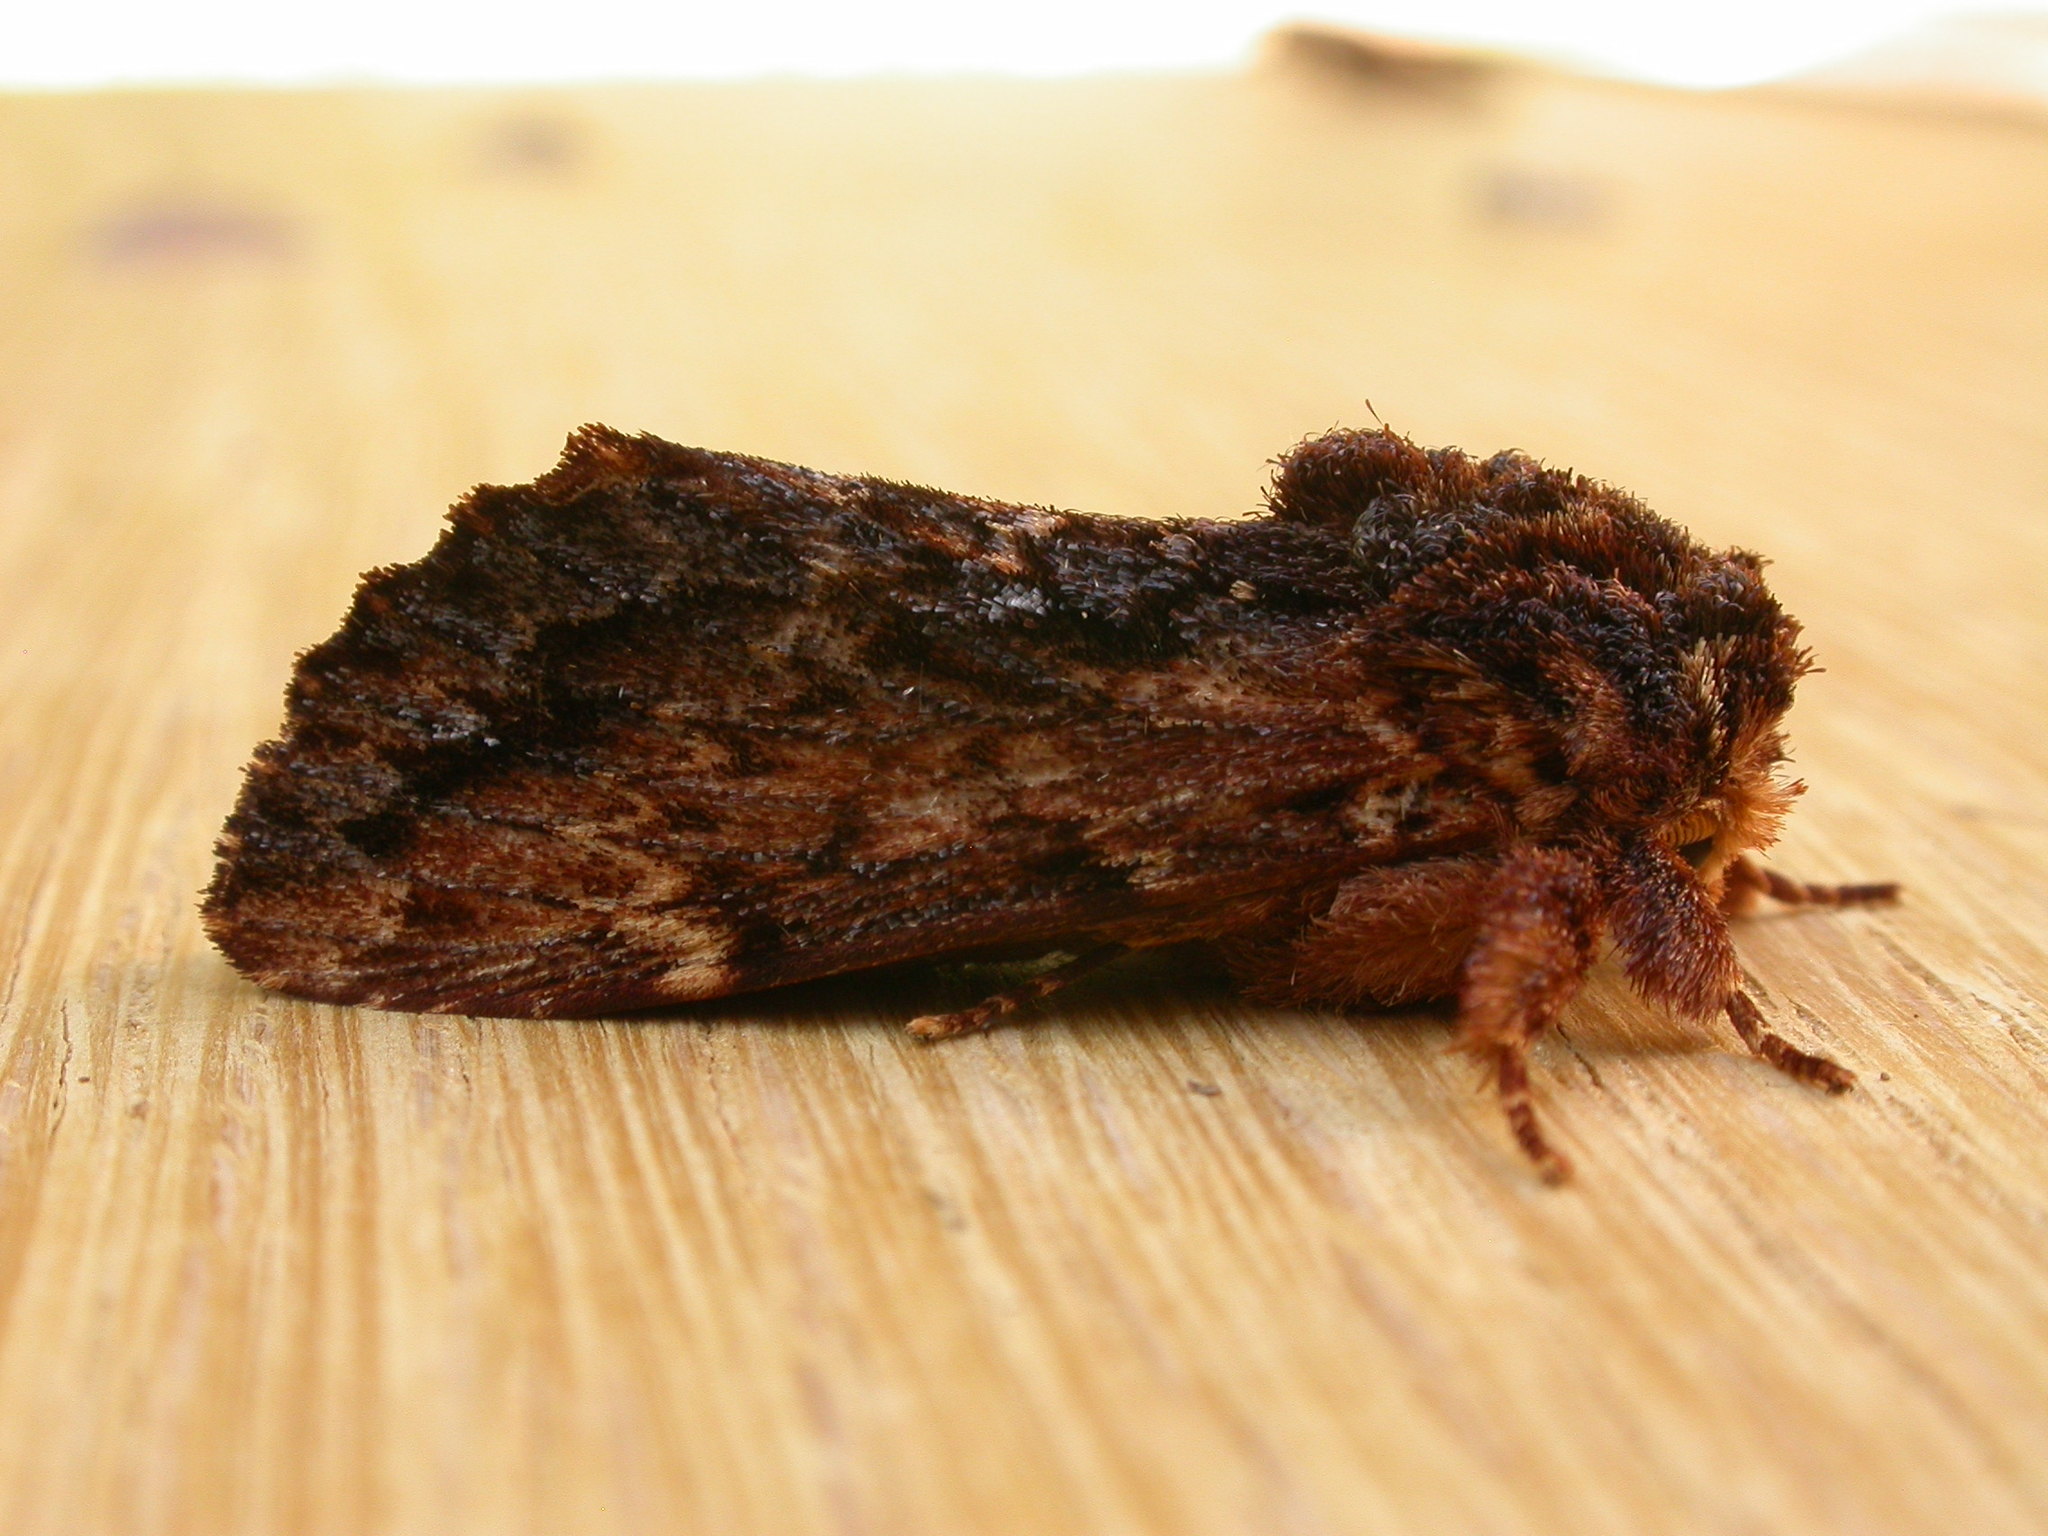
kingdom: Animalia
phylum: Arthropoda
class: Insecta
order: Lepidoptera
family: Notodontidae
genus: Sorama
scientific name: Sorama bicolor
